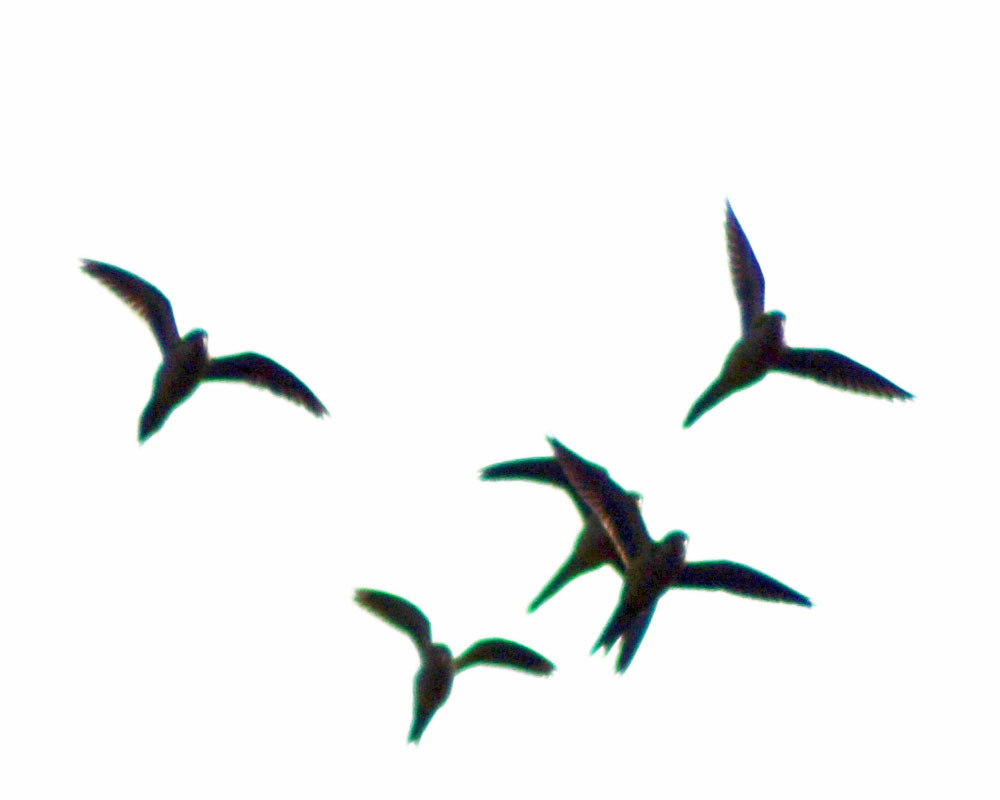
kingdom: Animalia
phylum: Chordata
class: Aves
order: Psittaciformes
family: Psittacidae
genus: Myiopsitta
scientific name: Myiopsitta monachus
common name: Monk parakeet
